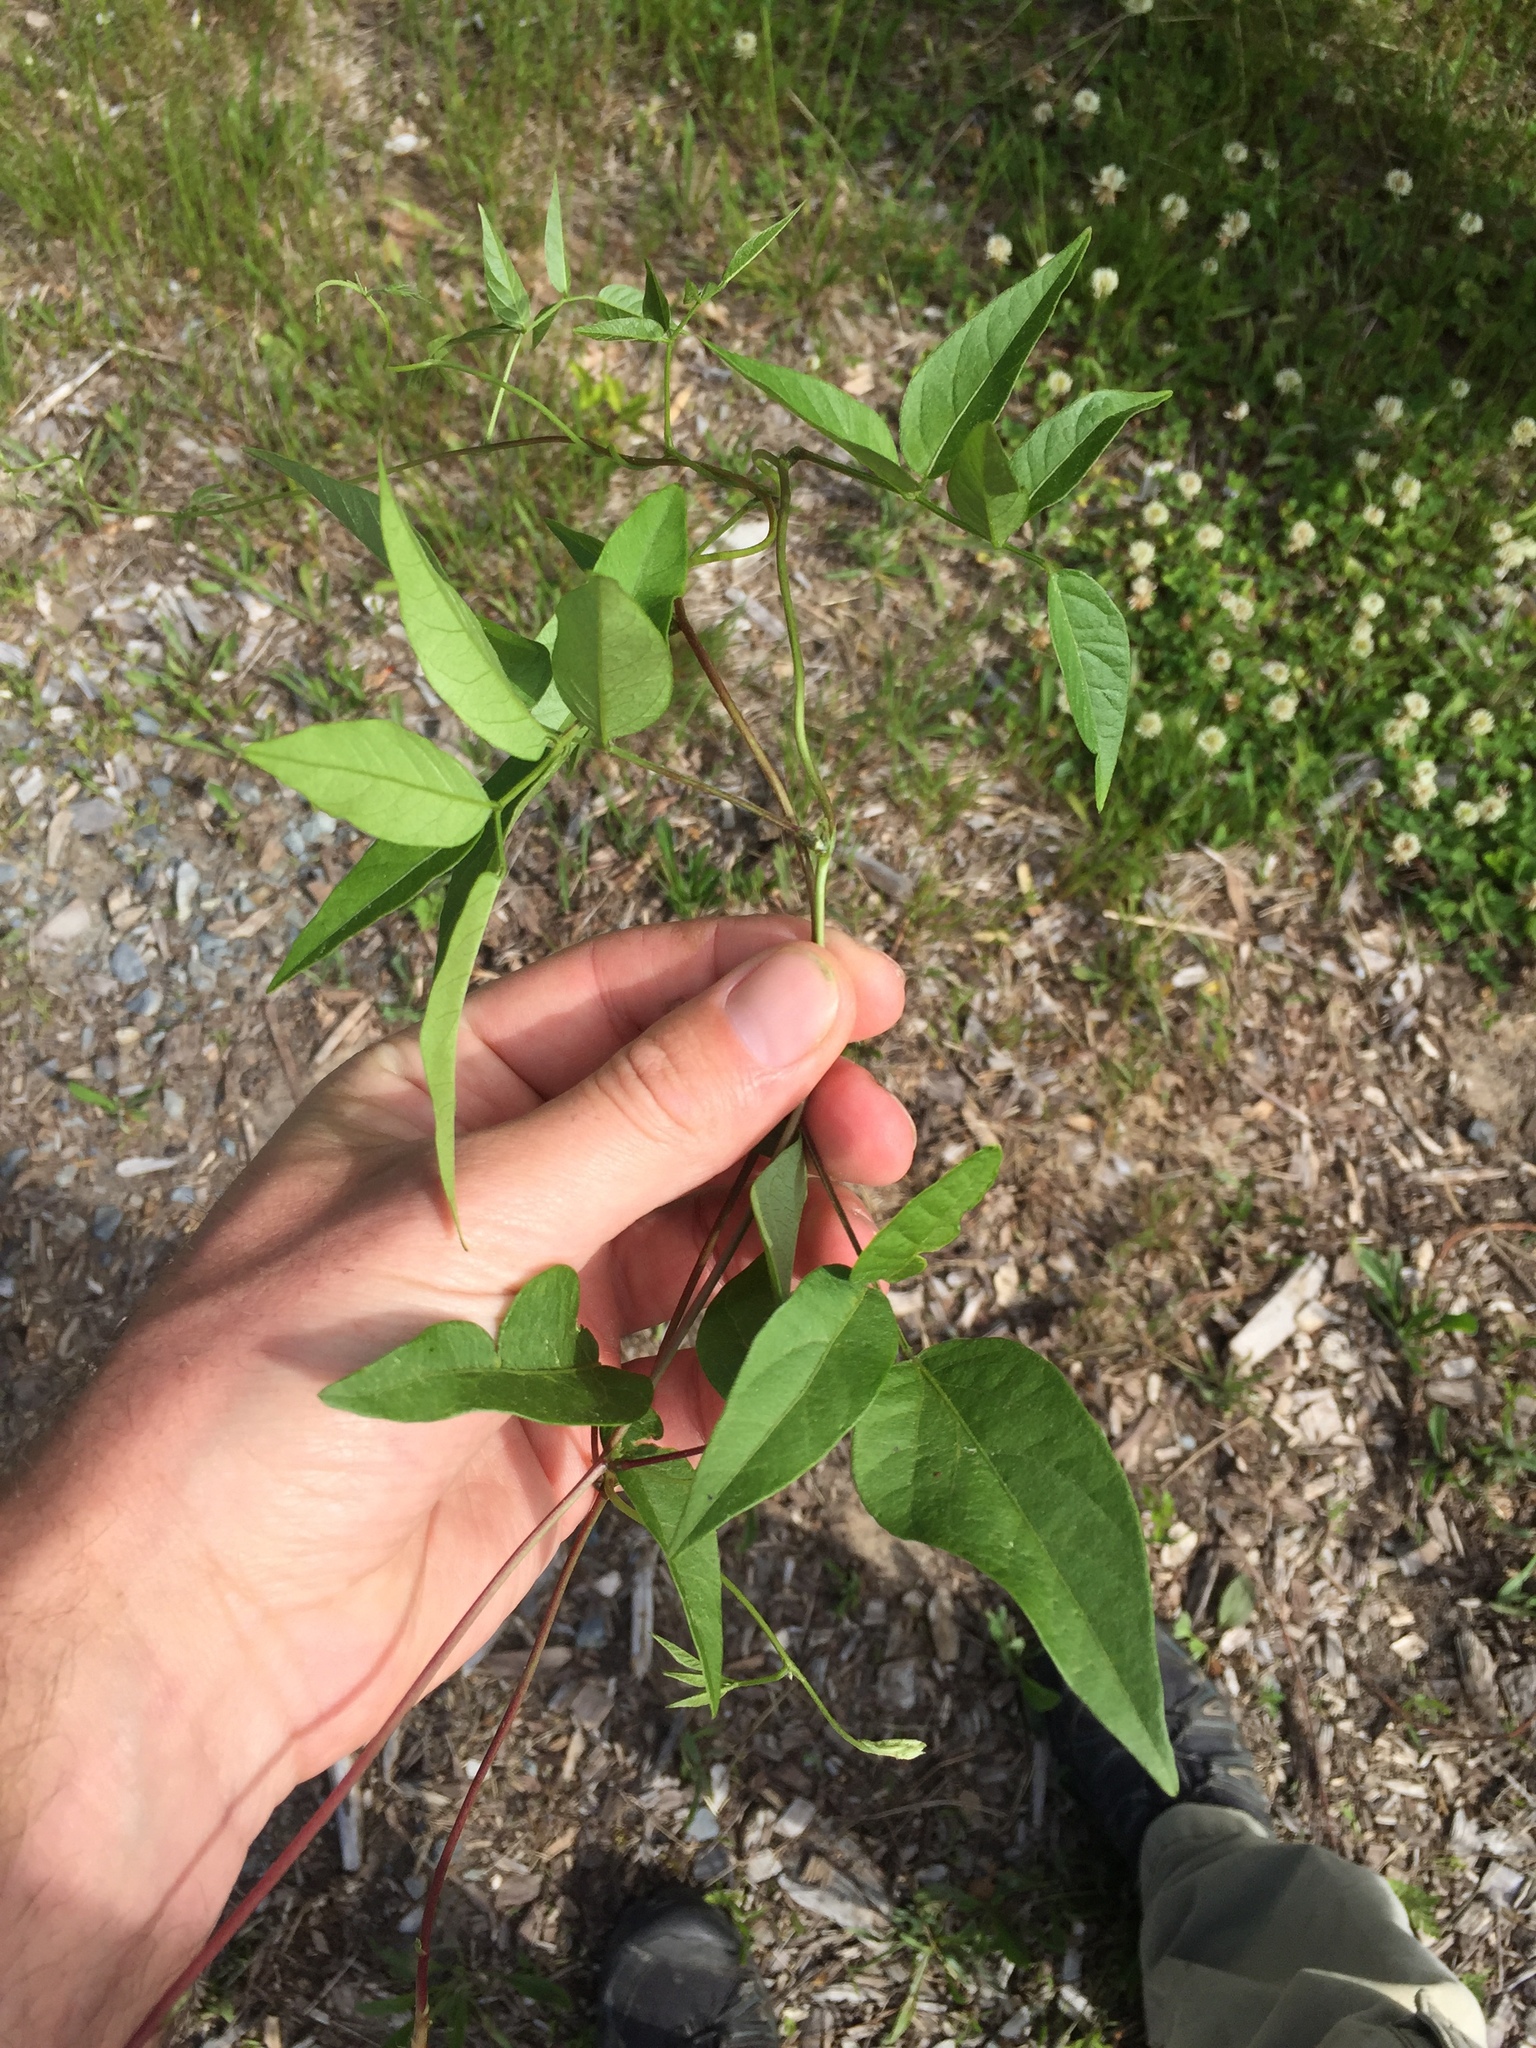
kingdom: Plantae
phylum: Tracheophyta
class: Magnoliopsida
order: Fabales
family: Fabaceae
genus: Apios
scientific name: Apios americana
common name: American potato-bean
